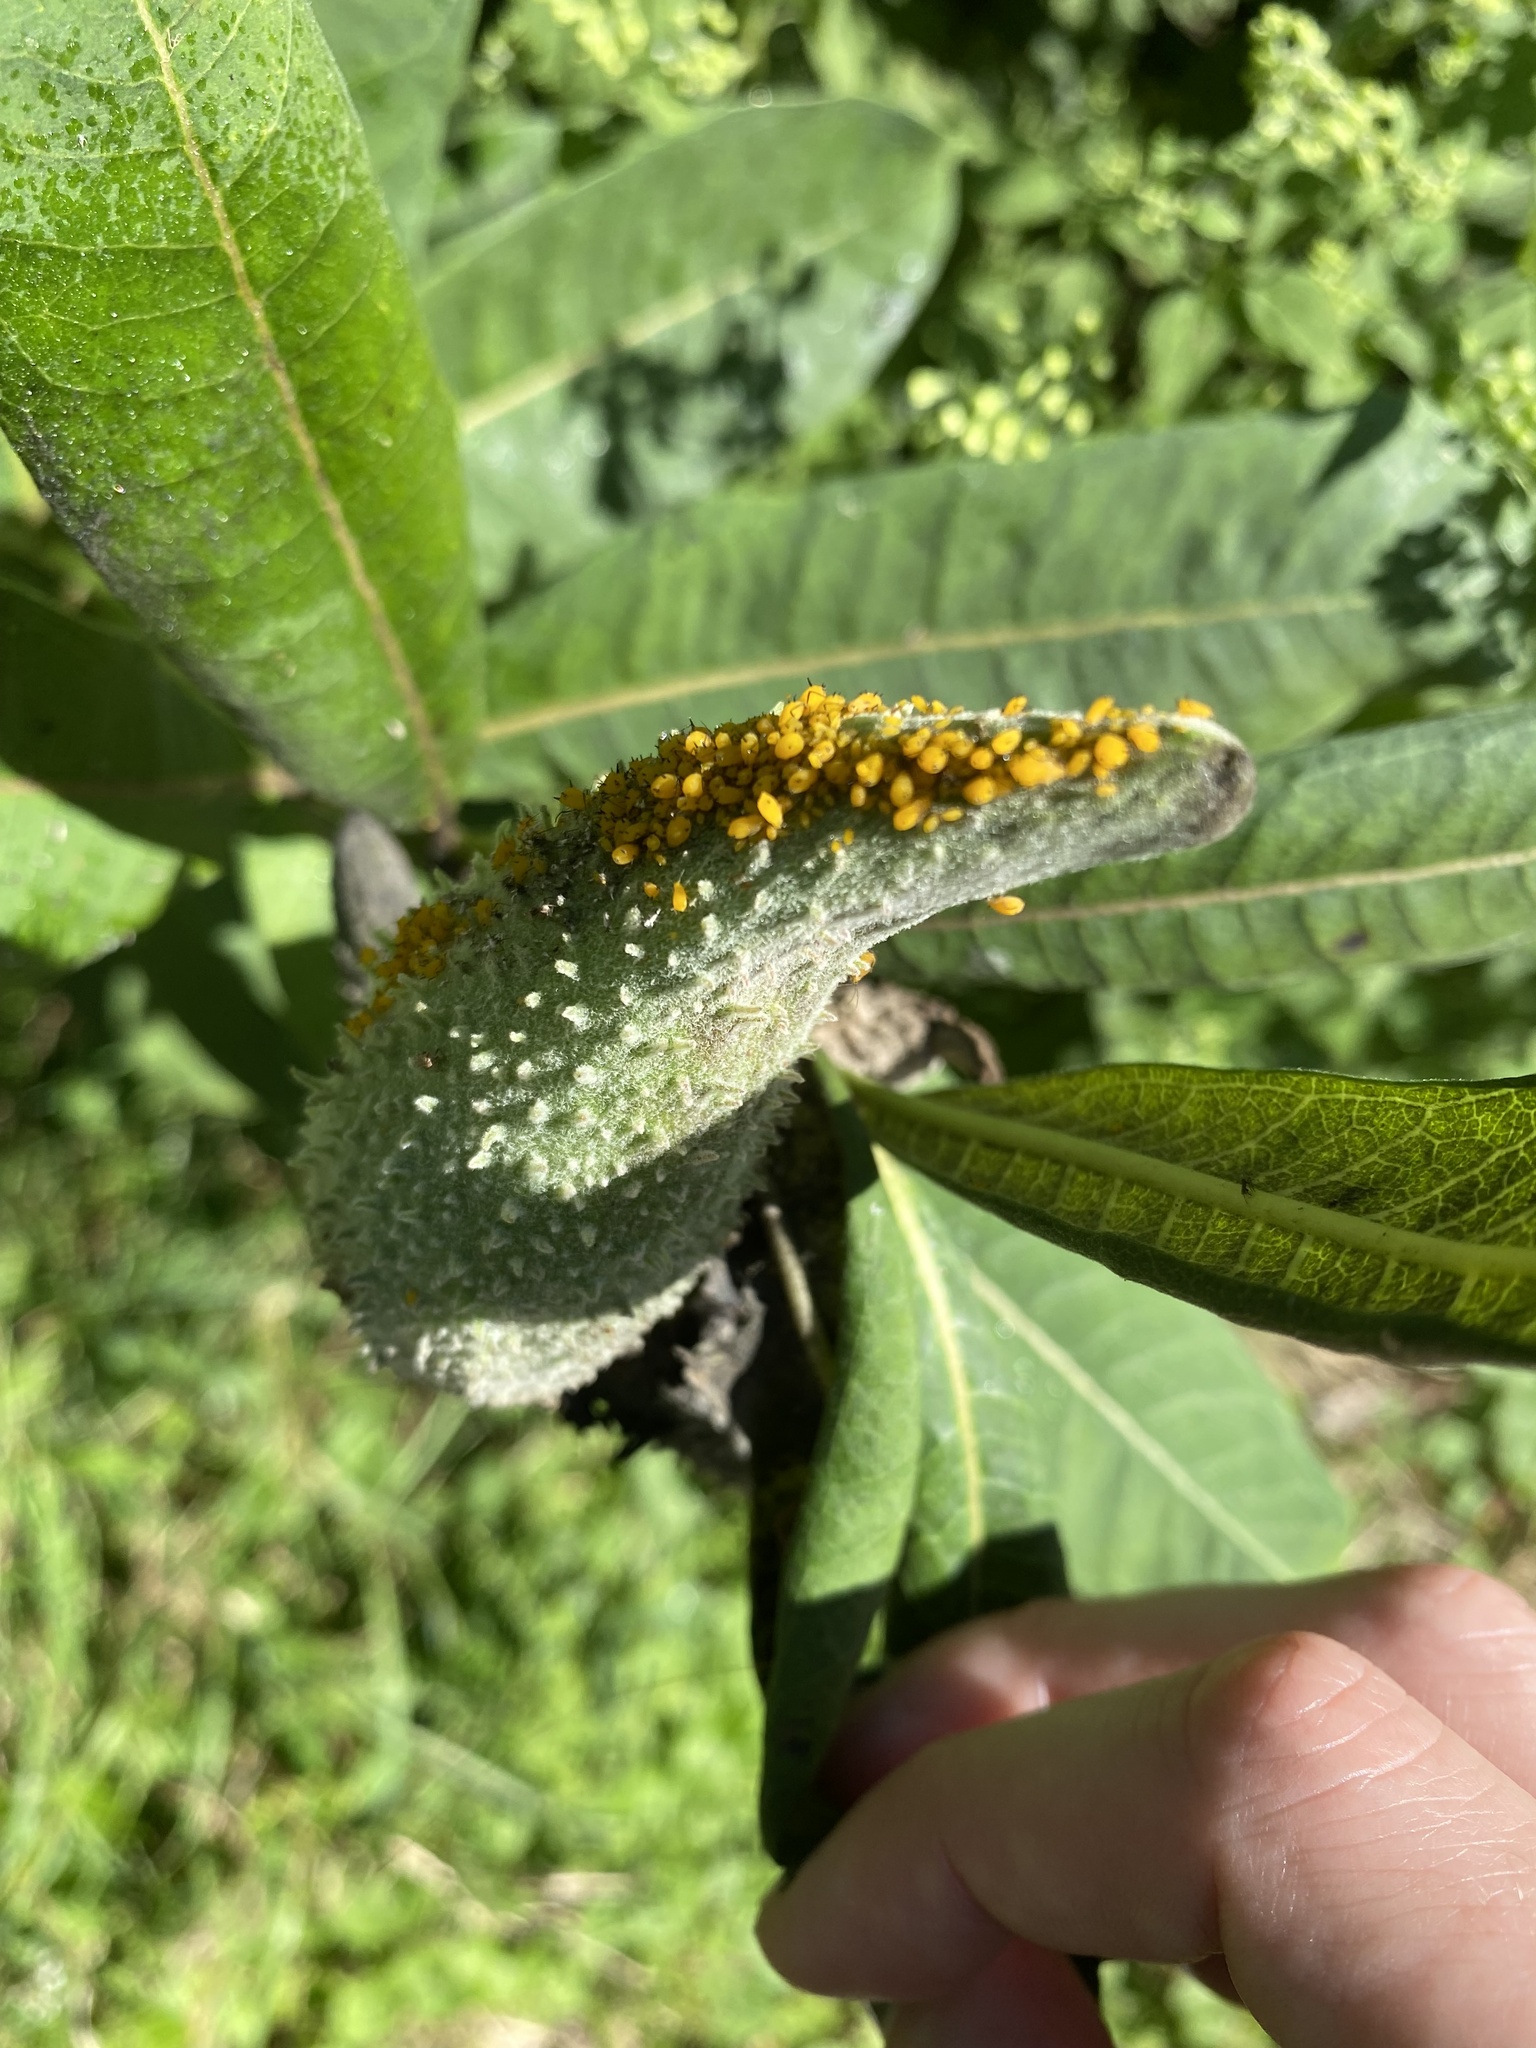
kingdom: Animalia
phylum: Arthropoda
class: Insecta
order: Hemiptera
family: Aphididae
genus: Aphis
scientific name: Aphis nerii
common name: Oleander aphid
